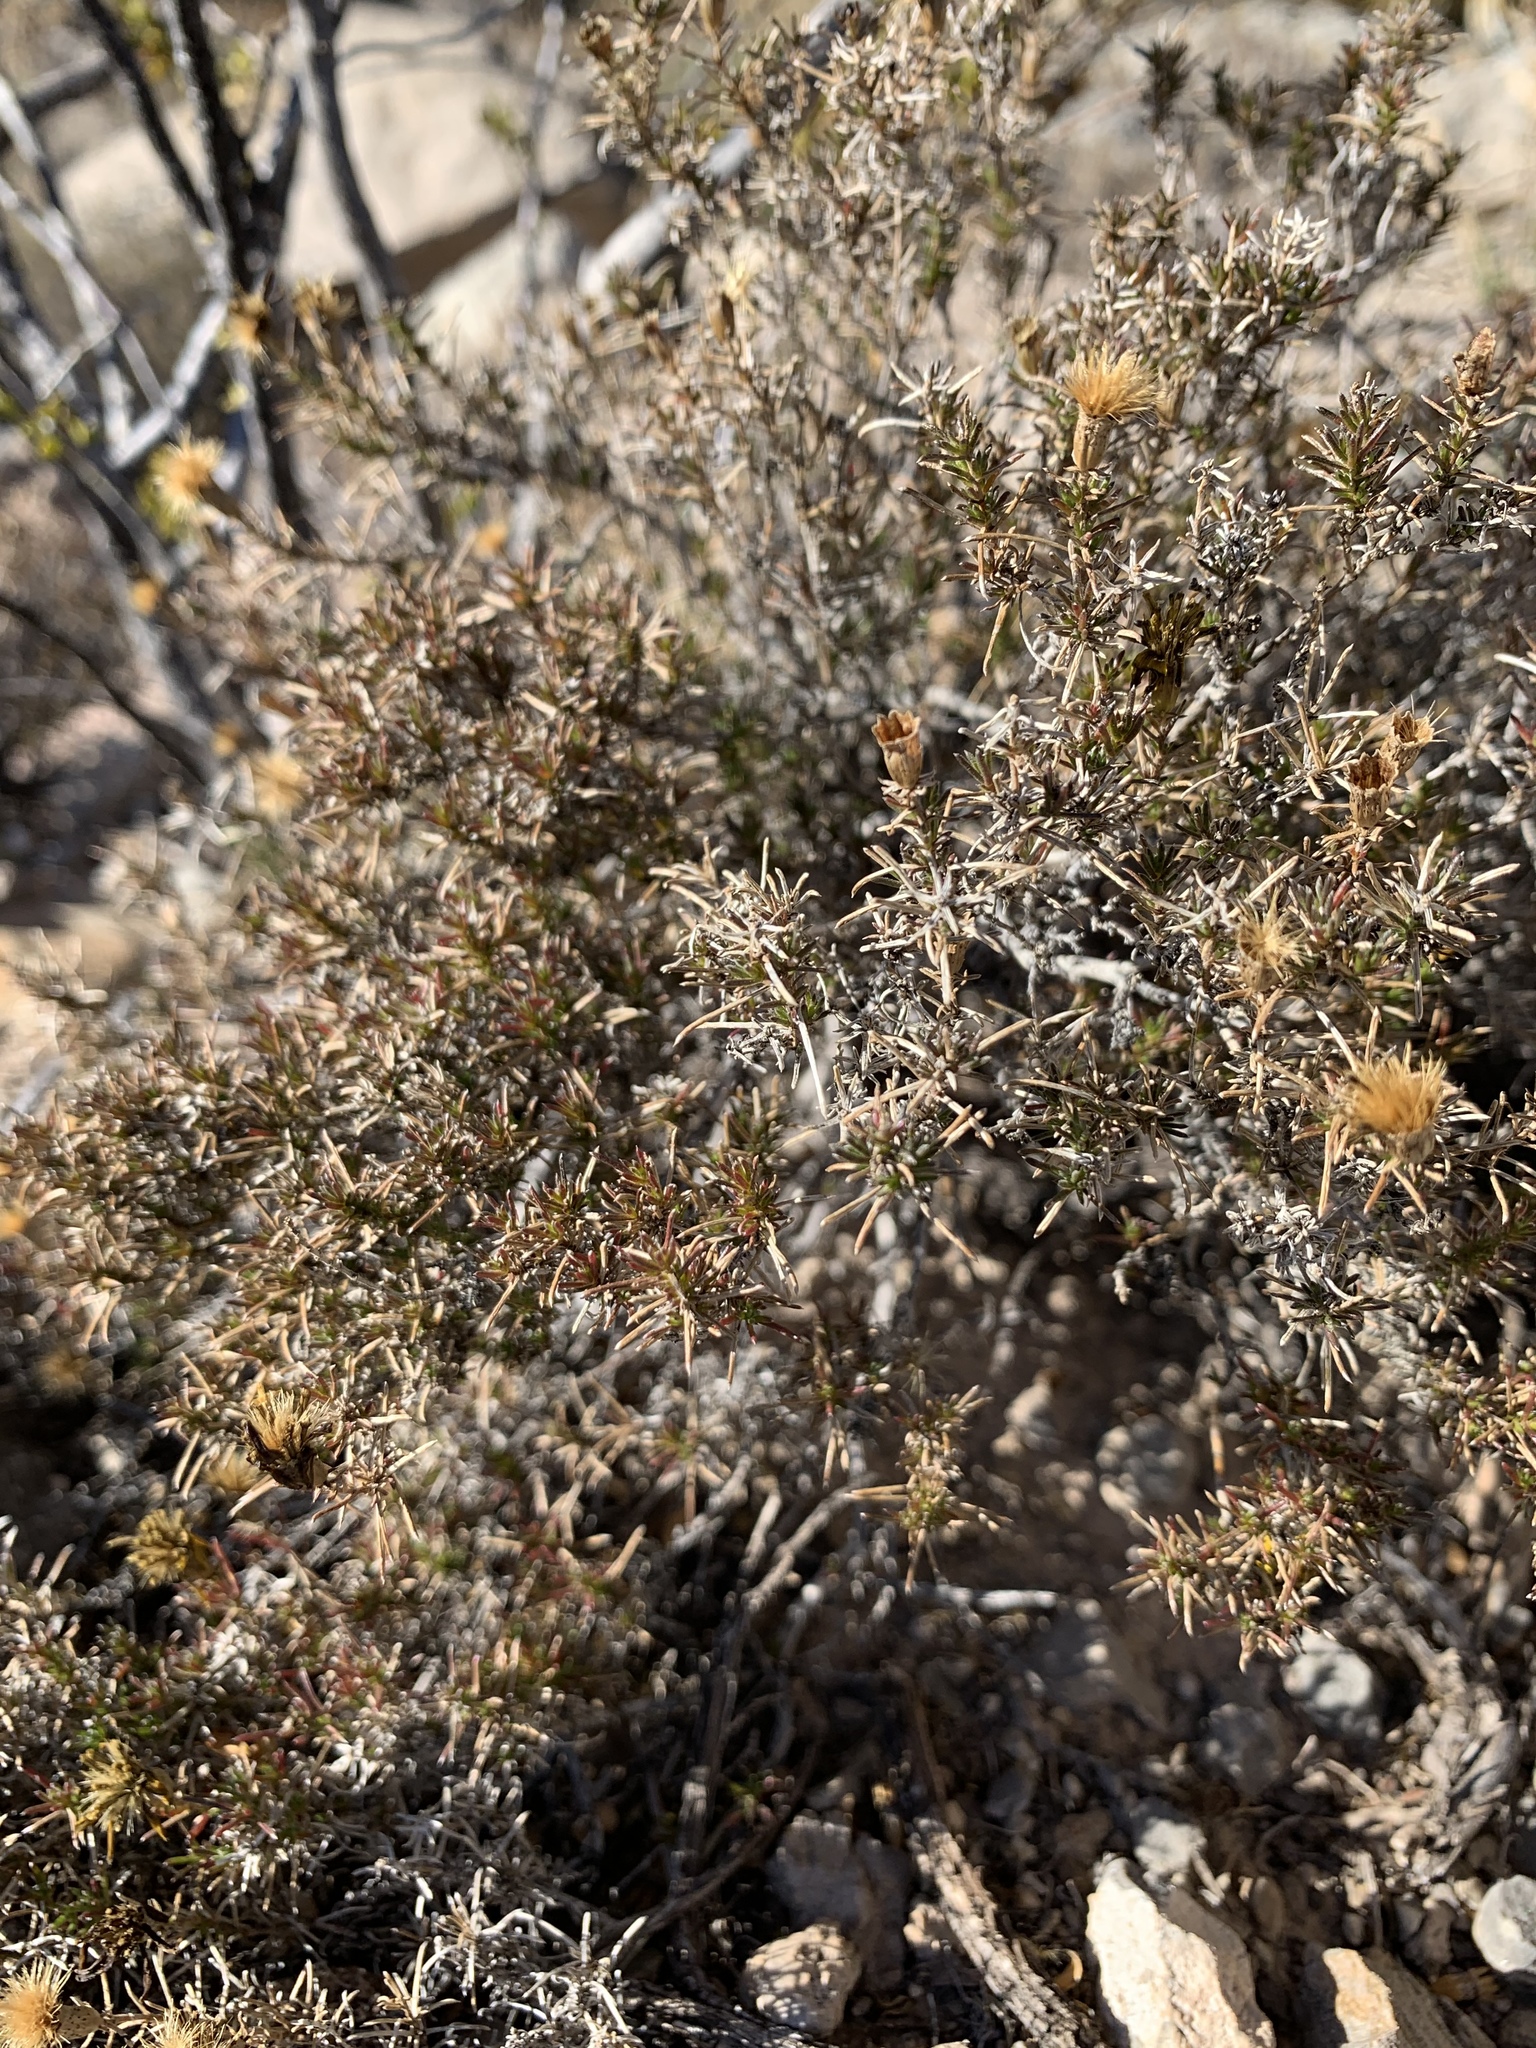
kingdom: Plantae
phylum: Tracheophyta
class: Magnoliopsida
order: Asterales
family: Asteraceae
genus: Thymophylla
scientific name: Thymophylla acerosa
